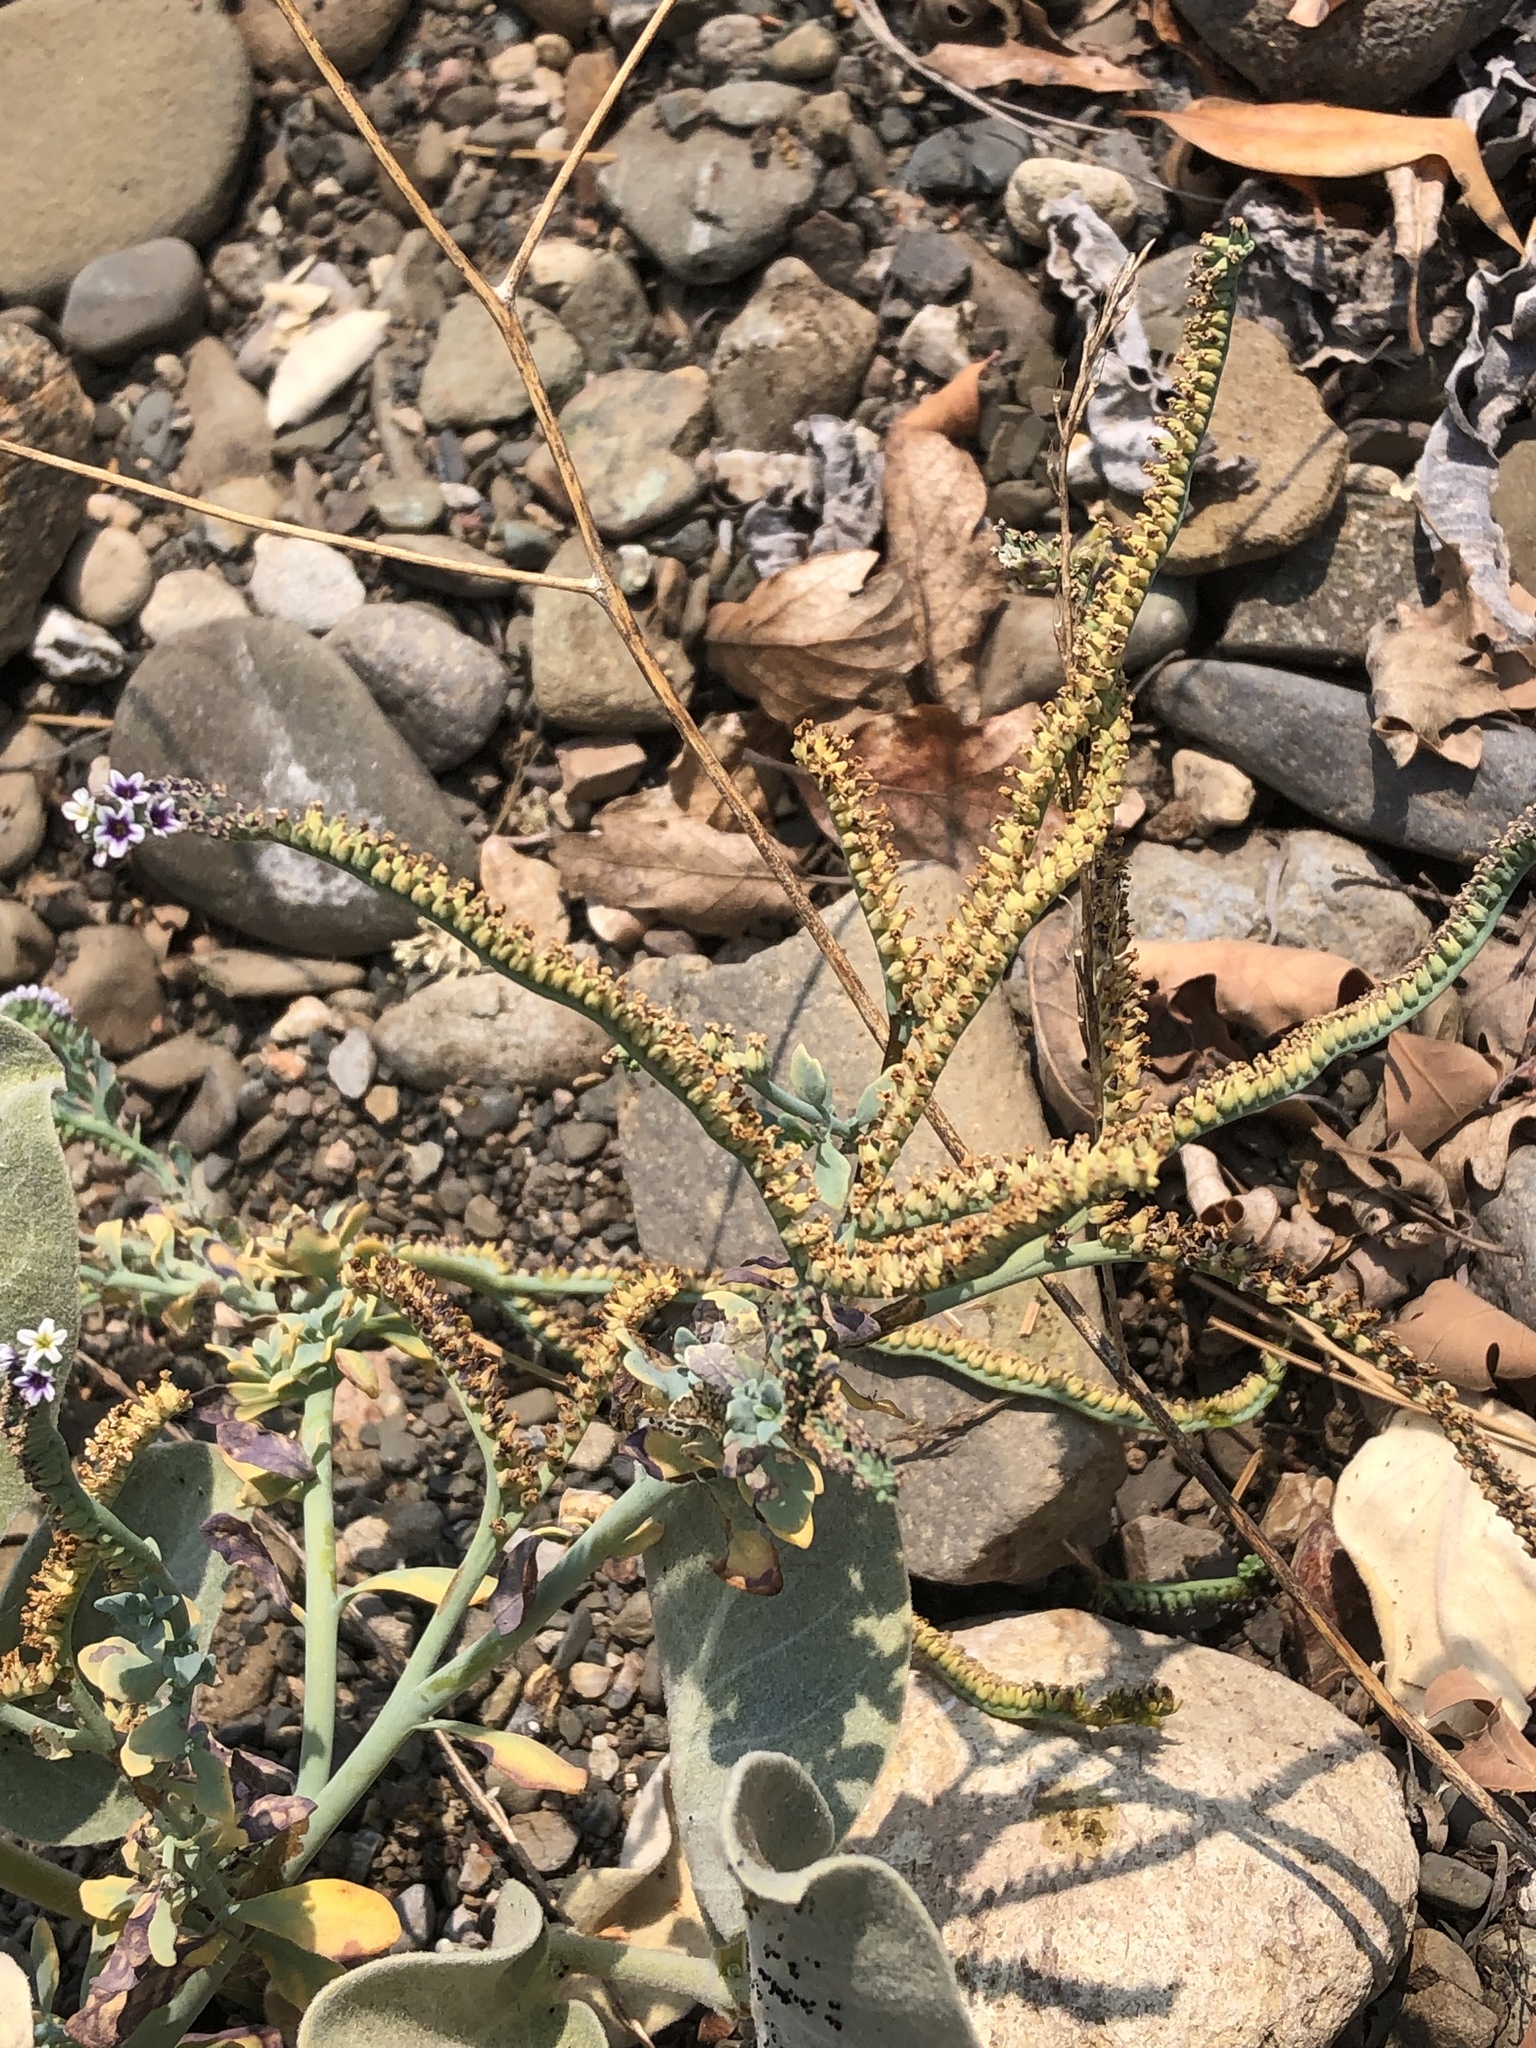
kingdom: Plantae
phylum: Tracheophyta
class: Magnoliopsida
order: Boraginales
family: Heliotropiaceae
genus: Heliotropium
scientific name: Heliotropium curassavicum
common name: Seaside heliotrope
